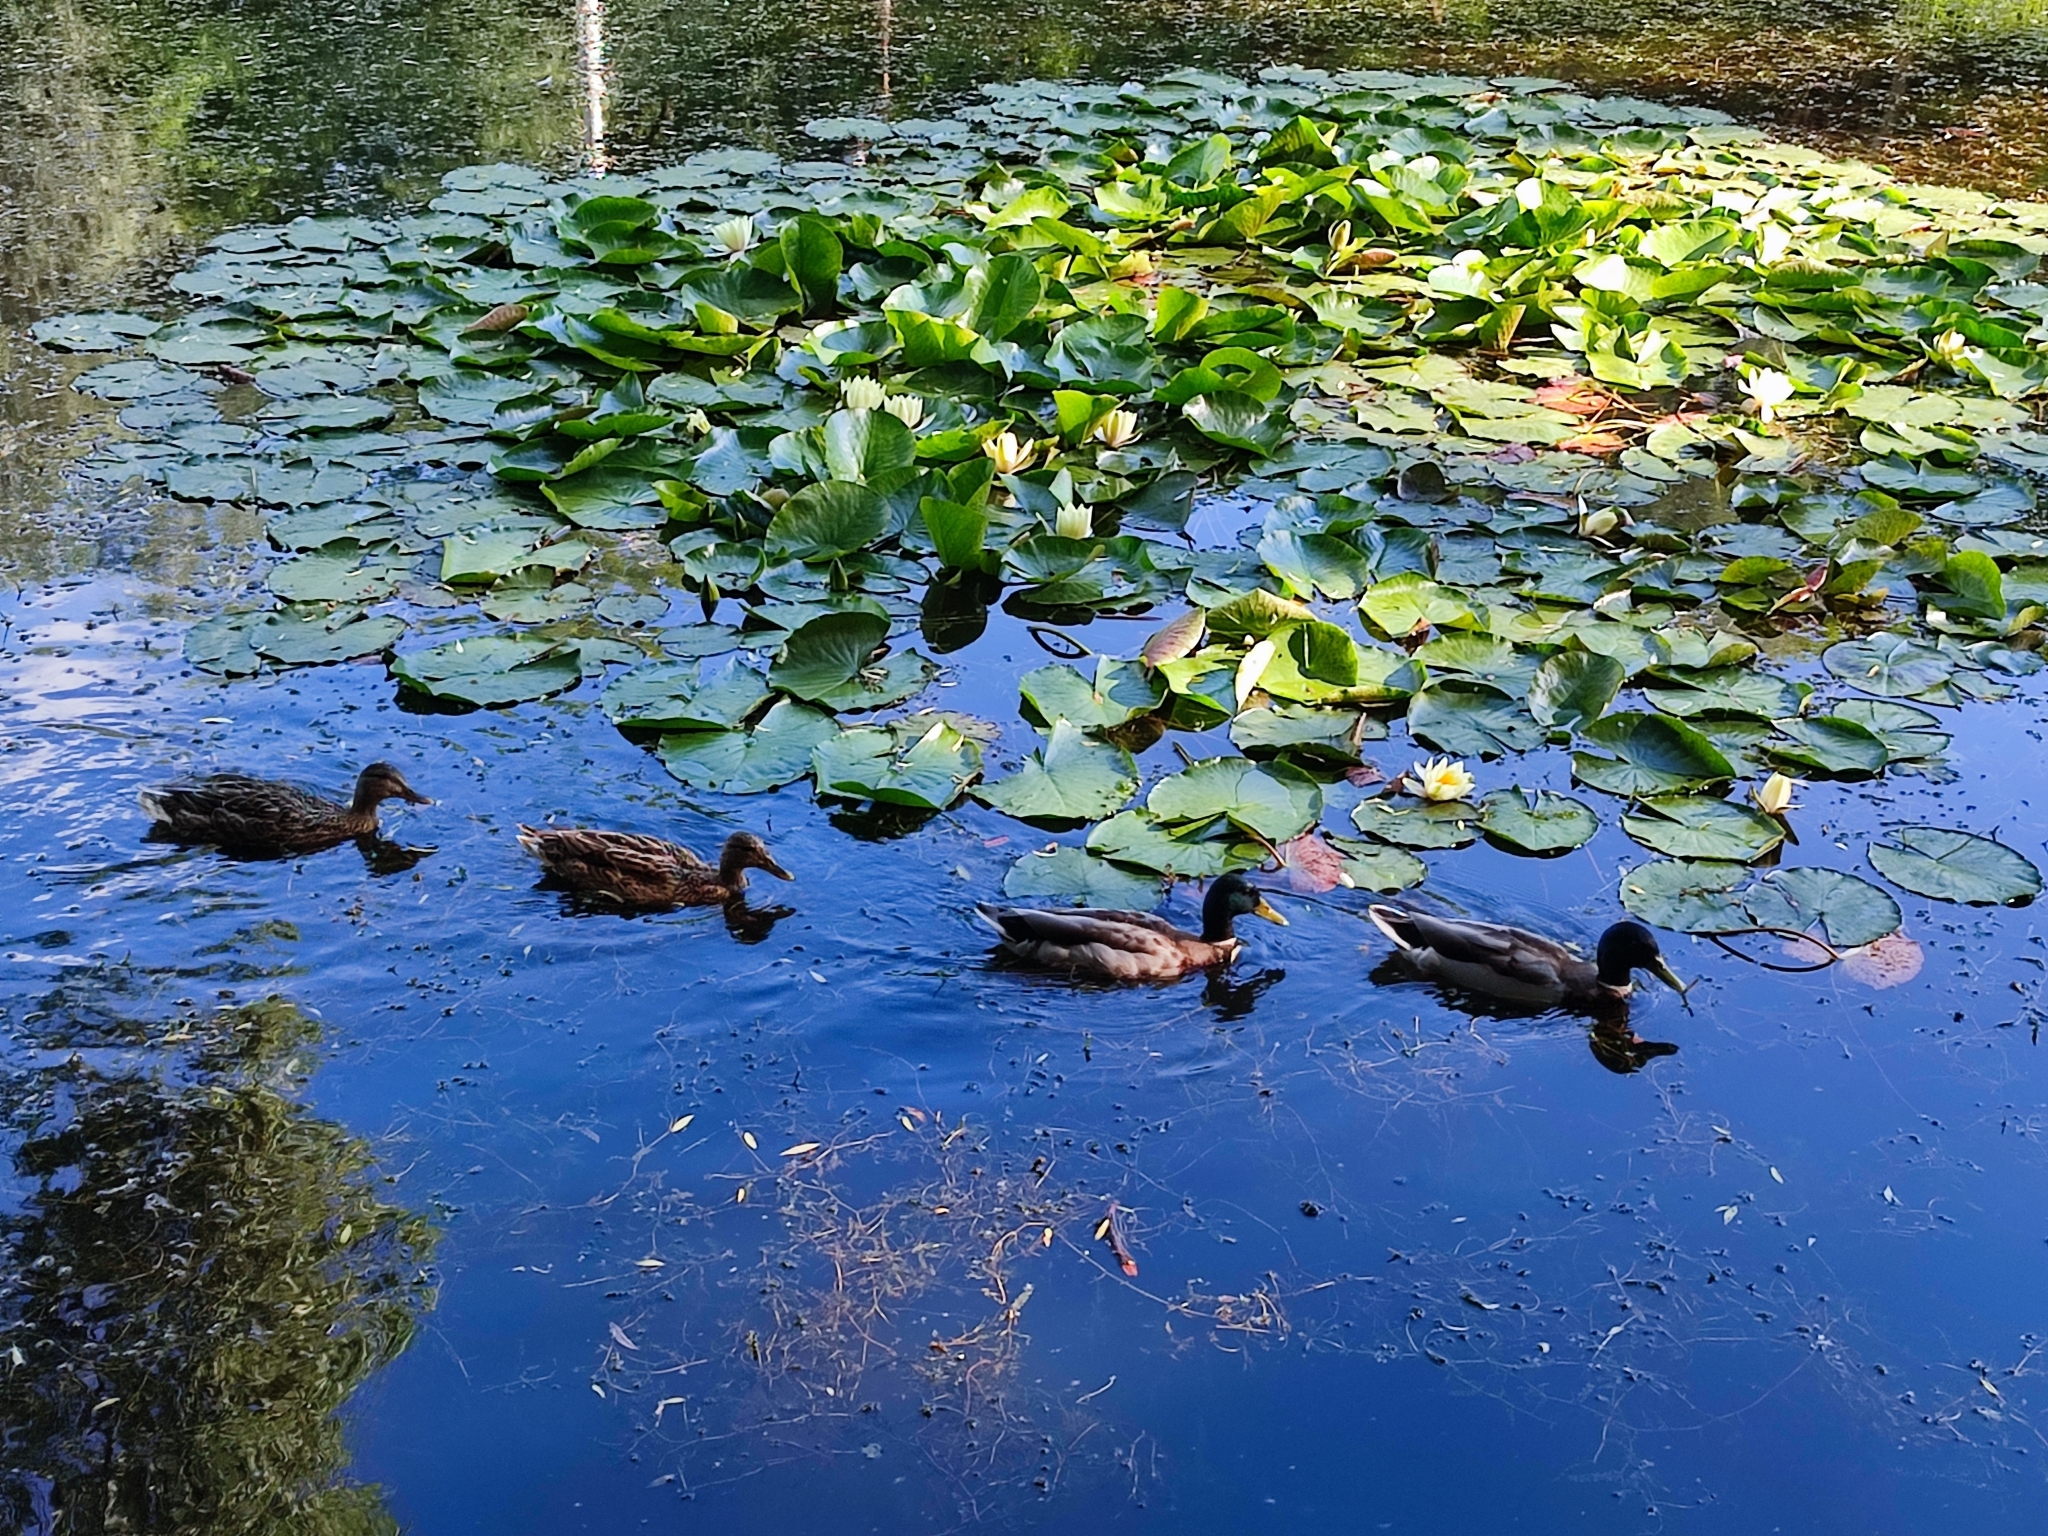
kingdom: Animalia
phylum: Chordata
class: Aves
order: Anseriformes
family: Anatidae
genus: Anas
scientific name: Anas platyrhynchos
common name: Mallard
